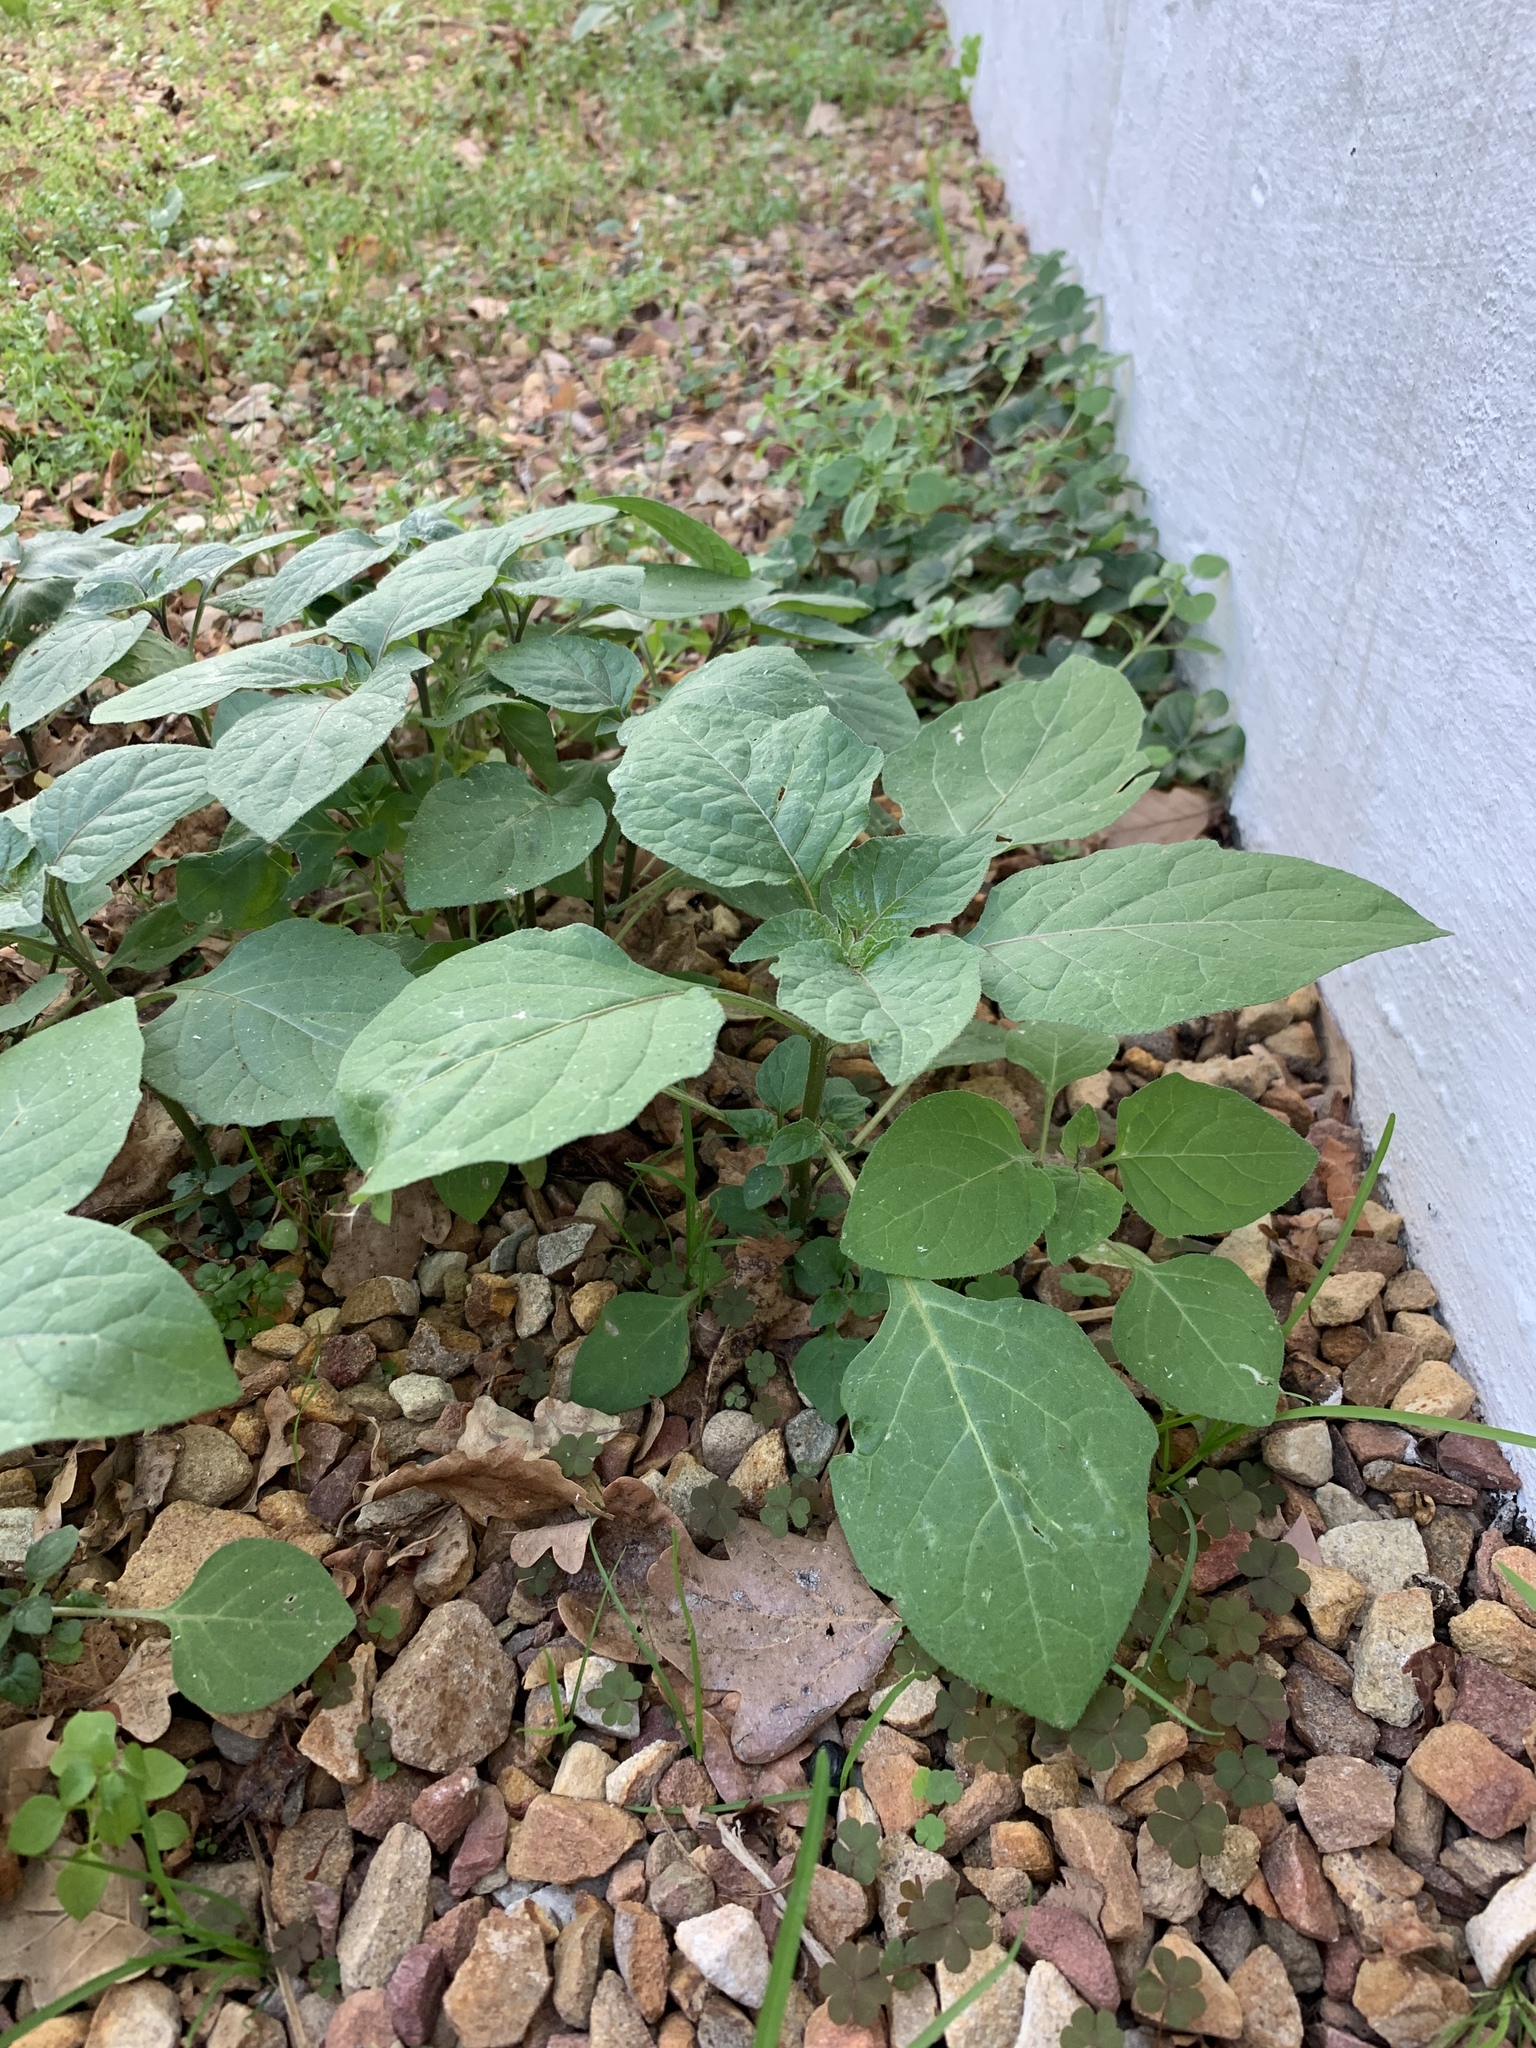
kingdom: Plantae
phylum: Tracheophyta
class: Magnoliopsida
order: Solanales
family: Solanaceae
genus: Solanum
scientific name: Solanum nigrum
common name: Black nightshade
